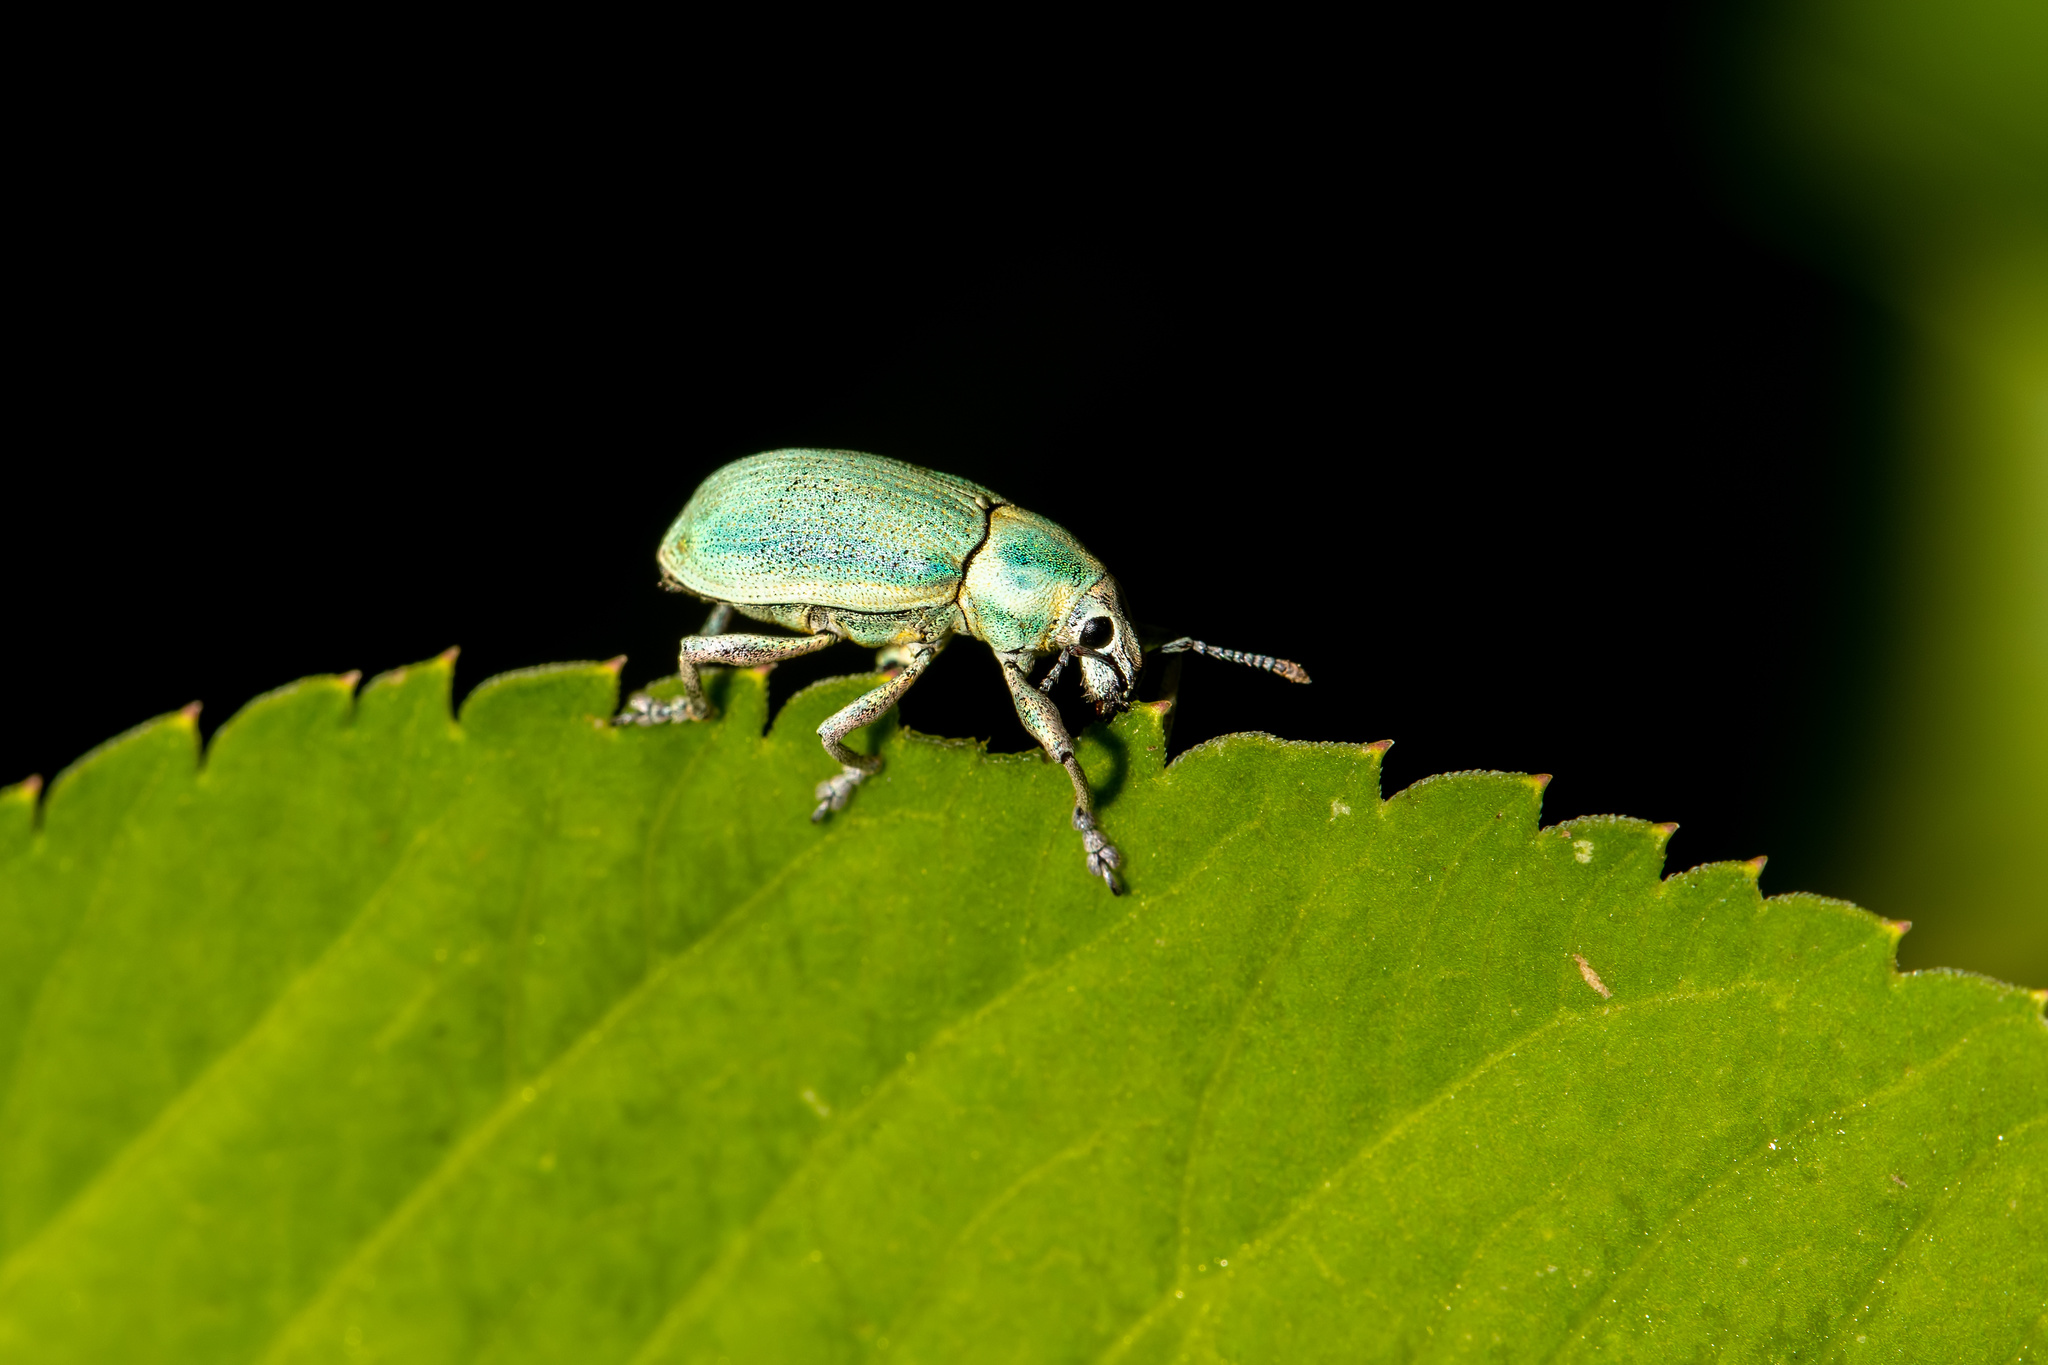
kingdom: Animalia
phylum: Arthropoda
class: Insecta
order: Coleoptera
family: Curculionidae
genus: Pachnaeus
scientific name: Pachnaeus litus
